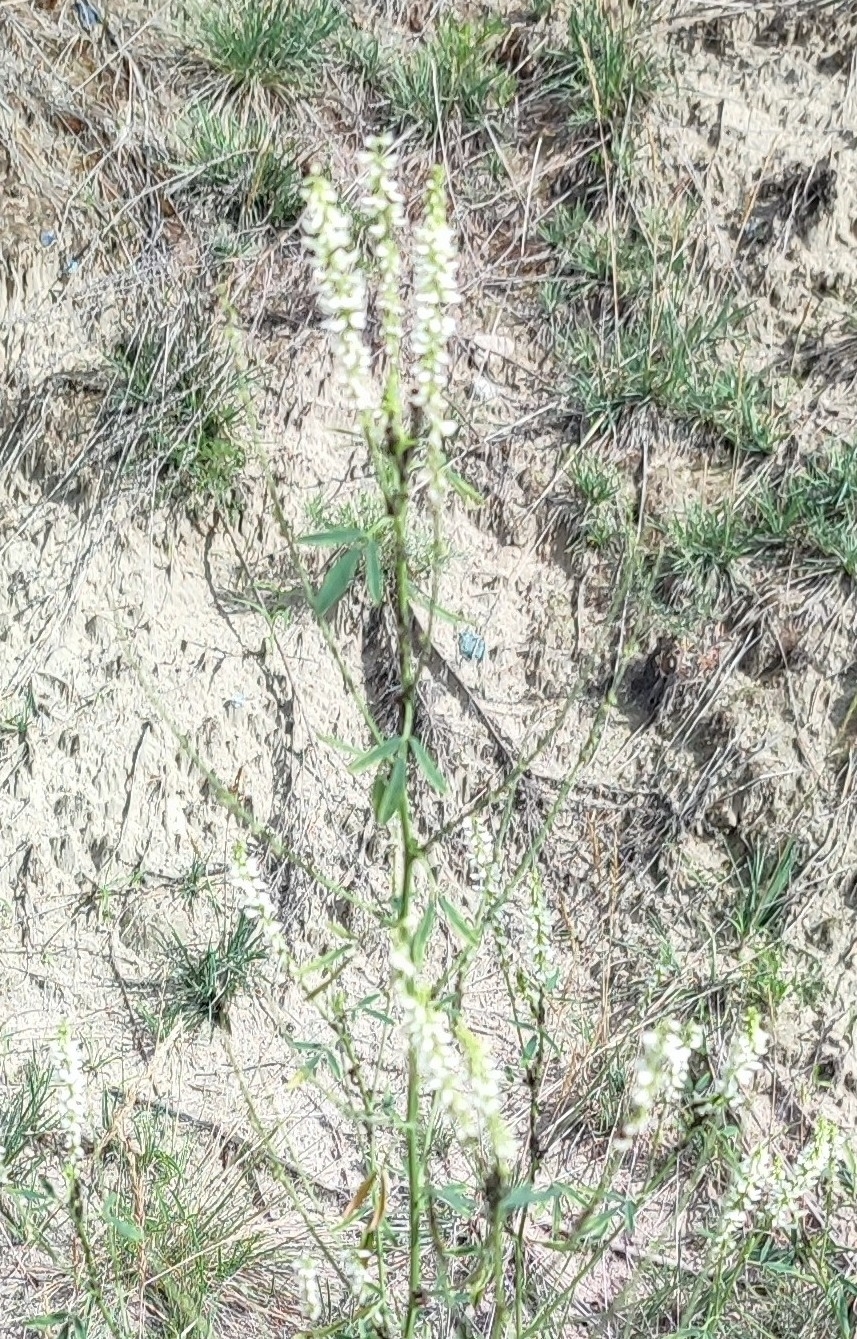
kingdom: Plantae
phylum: Tracheophyta
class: Magnoliopsida
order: Fabales
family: Fabaceae
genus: Melilotus
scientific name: Melilotus albus
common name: White melilot
